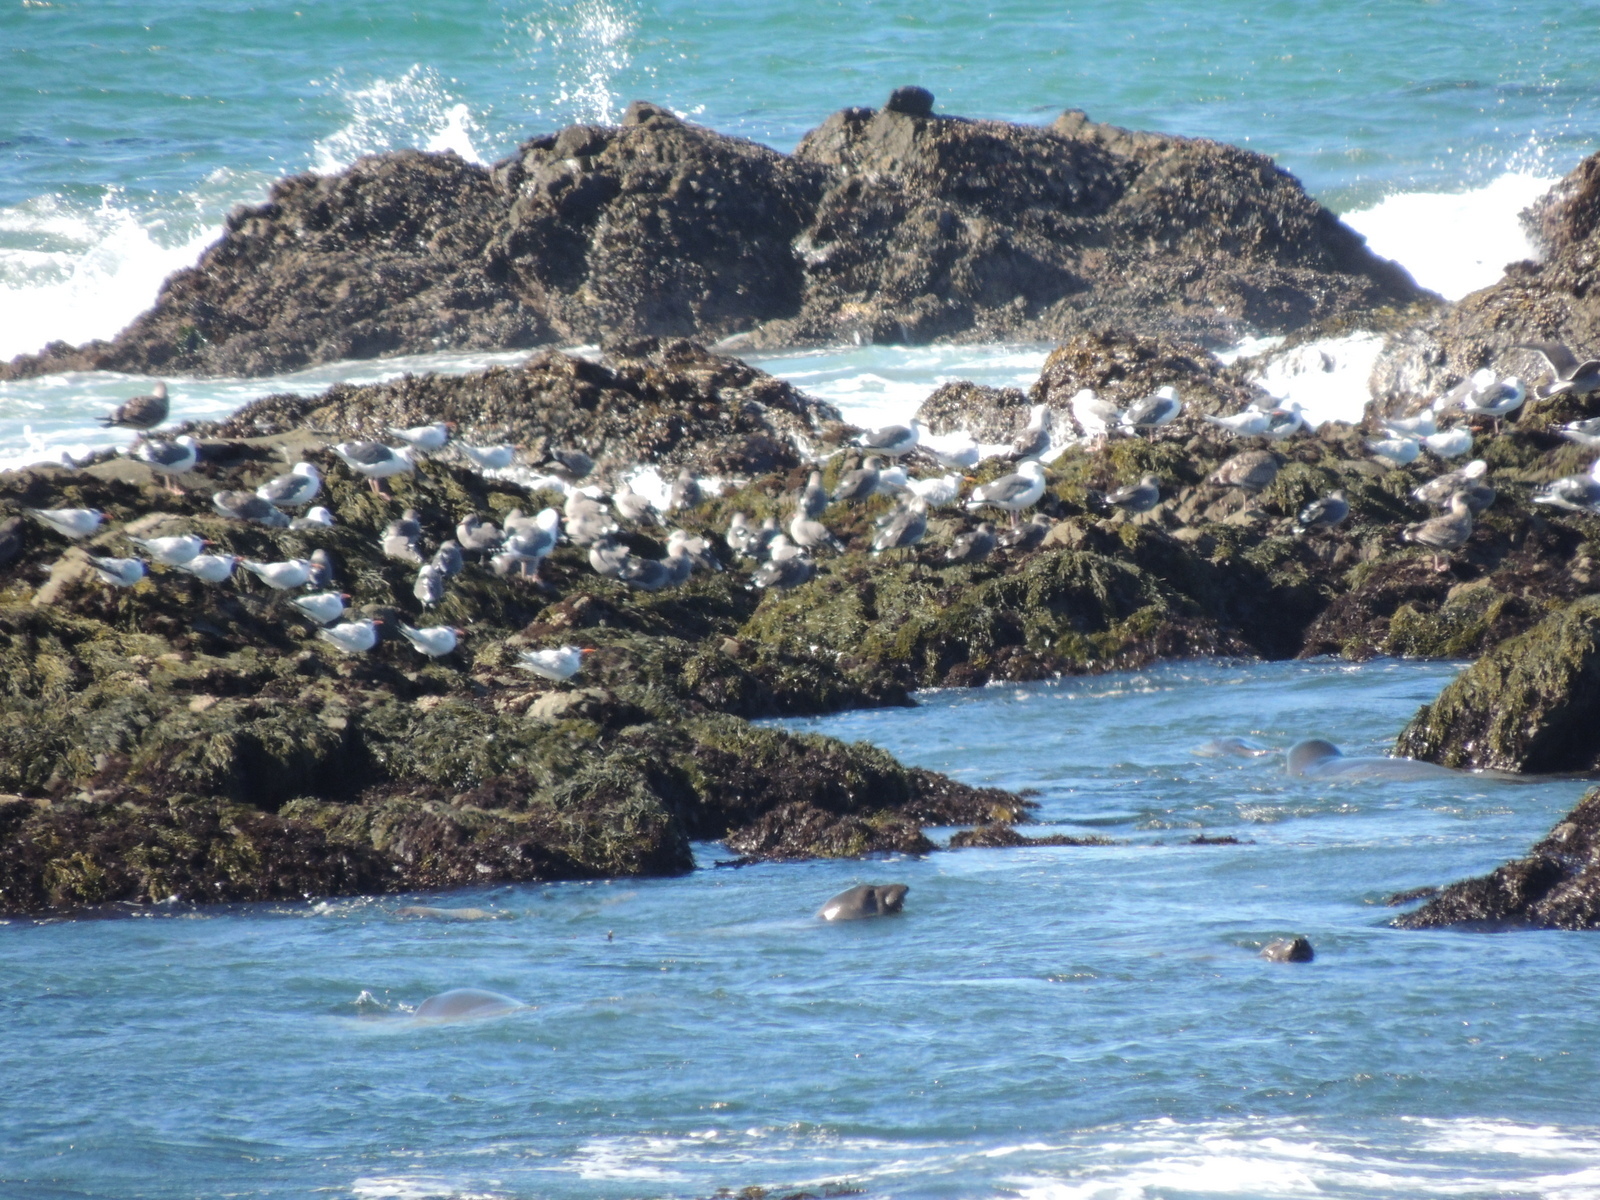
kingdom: Animalia
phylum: Chordata
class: Mammalia
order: Carnivora
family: Phocidae
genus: Mirounga
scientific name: Mirounga angustirostris
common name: Northern elephant seal
